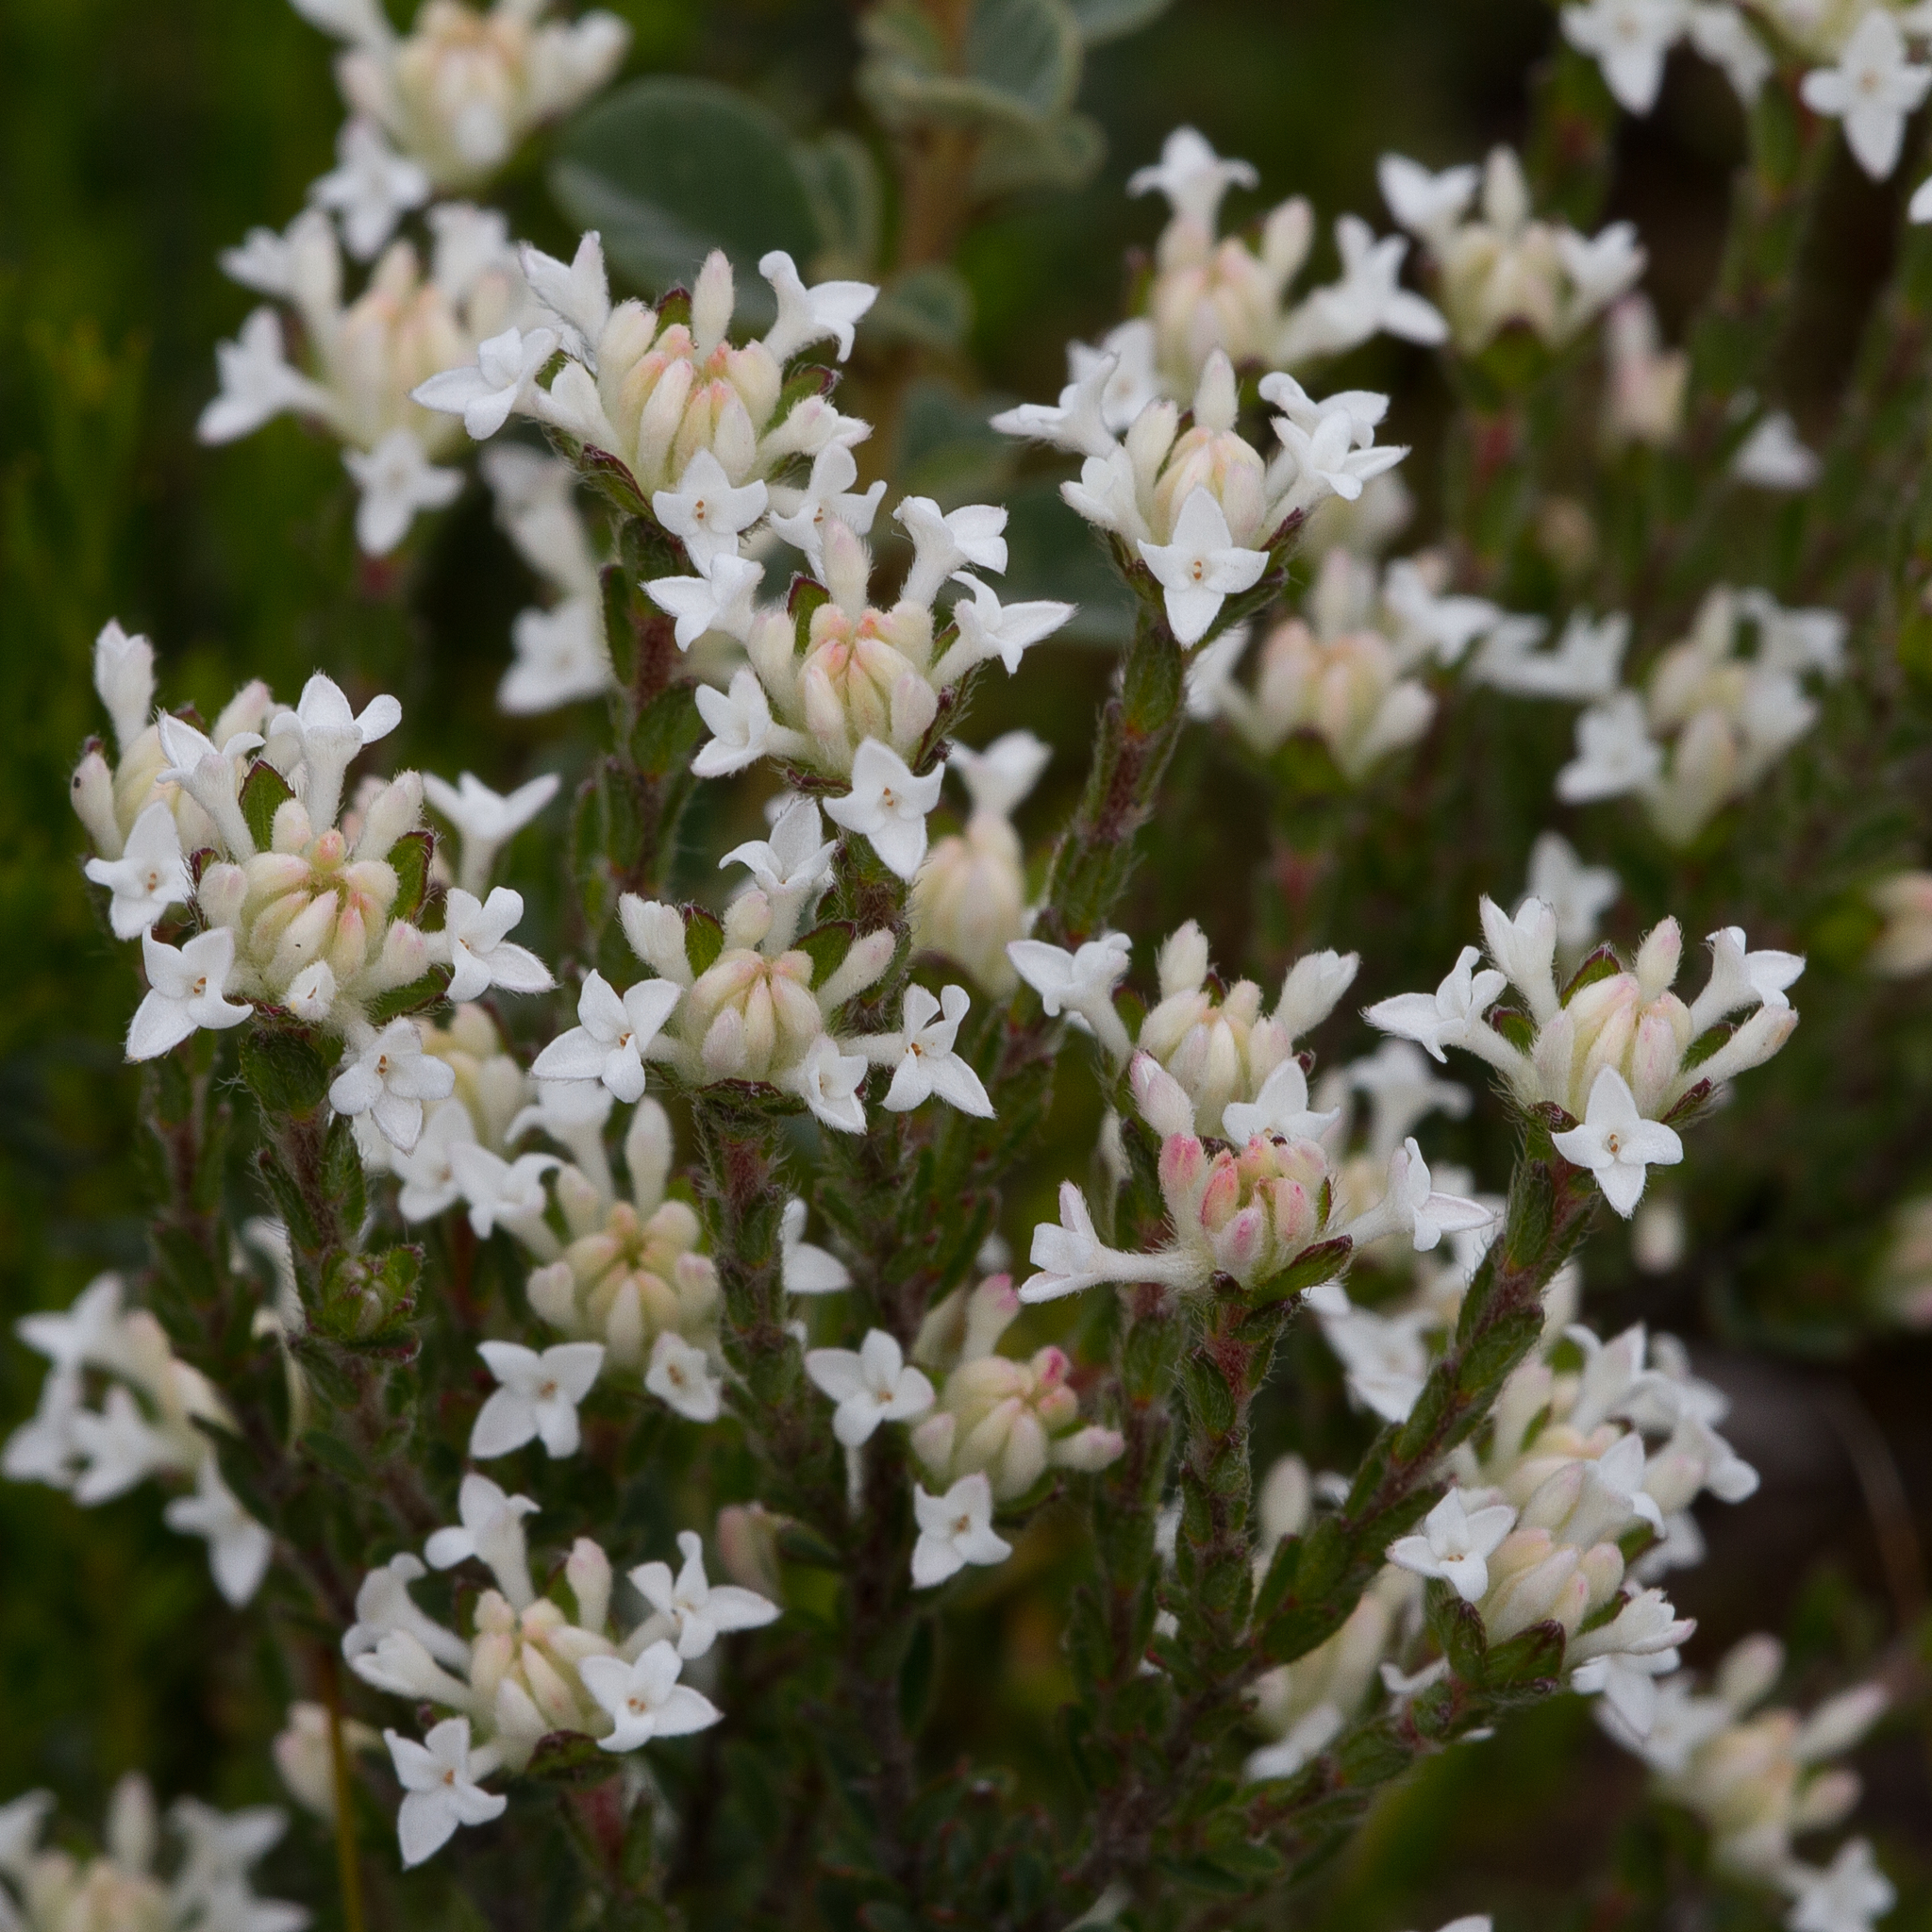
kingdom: Plantae
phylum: Tracheophyta
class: Magnoliopsida
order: Malvales
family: Thymelaeaceae
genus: Pimelea
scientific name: Pimelea phylicoides
